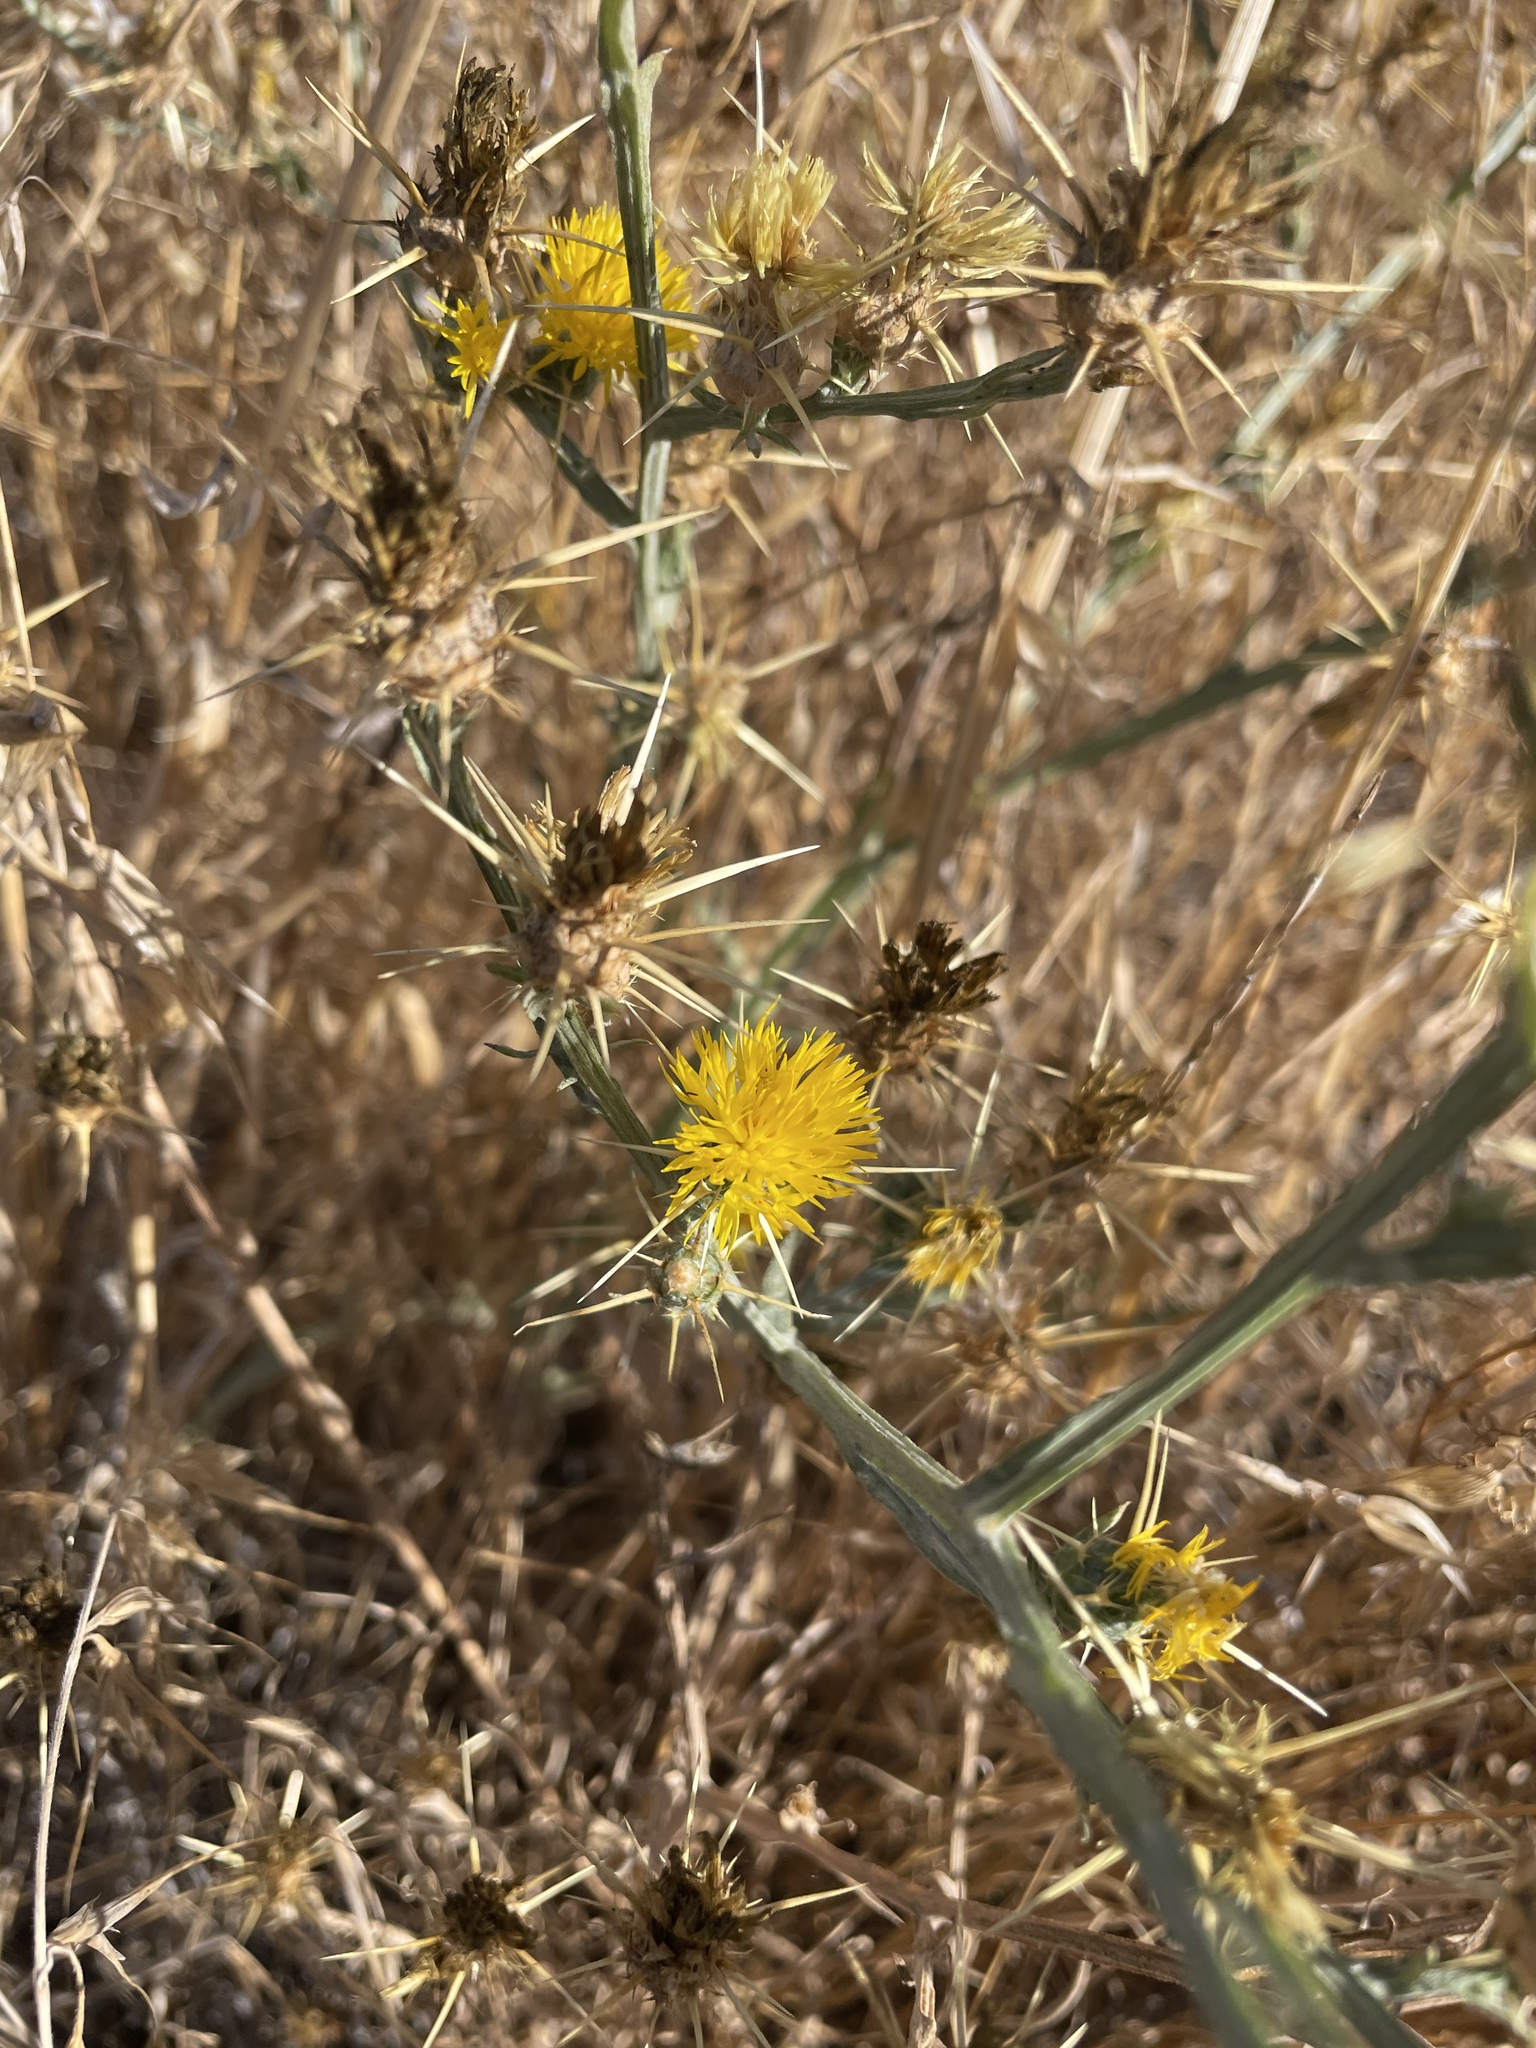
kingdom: Plantae
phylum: Tracheophyta
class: Magnoliopsida
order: Asterales
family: Asteraceae
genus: Centaurea
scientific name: Centaurea solstitialis
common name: Yellow star-thistle
